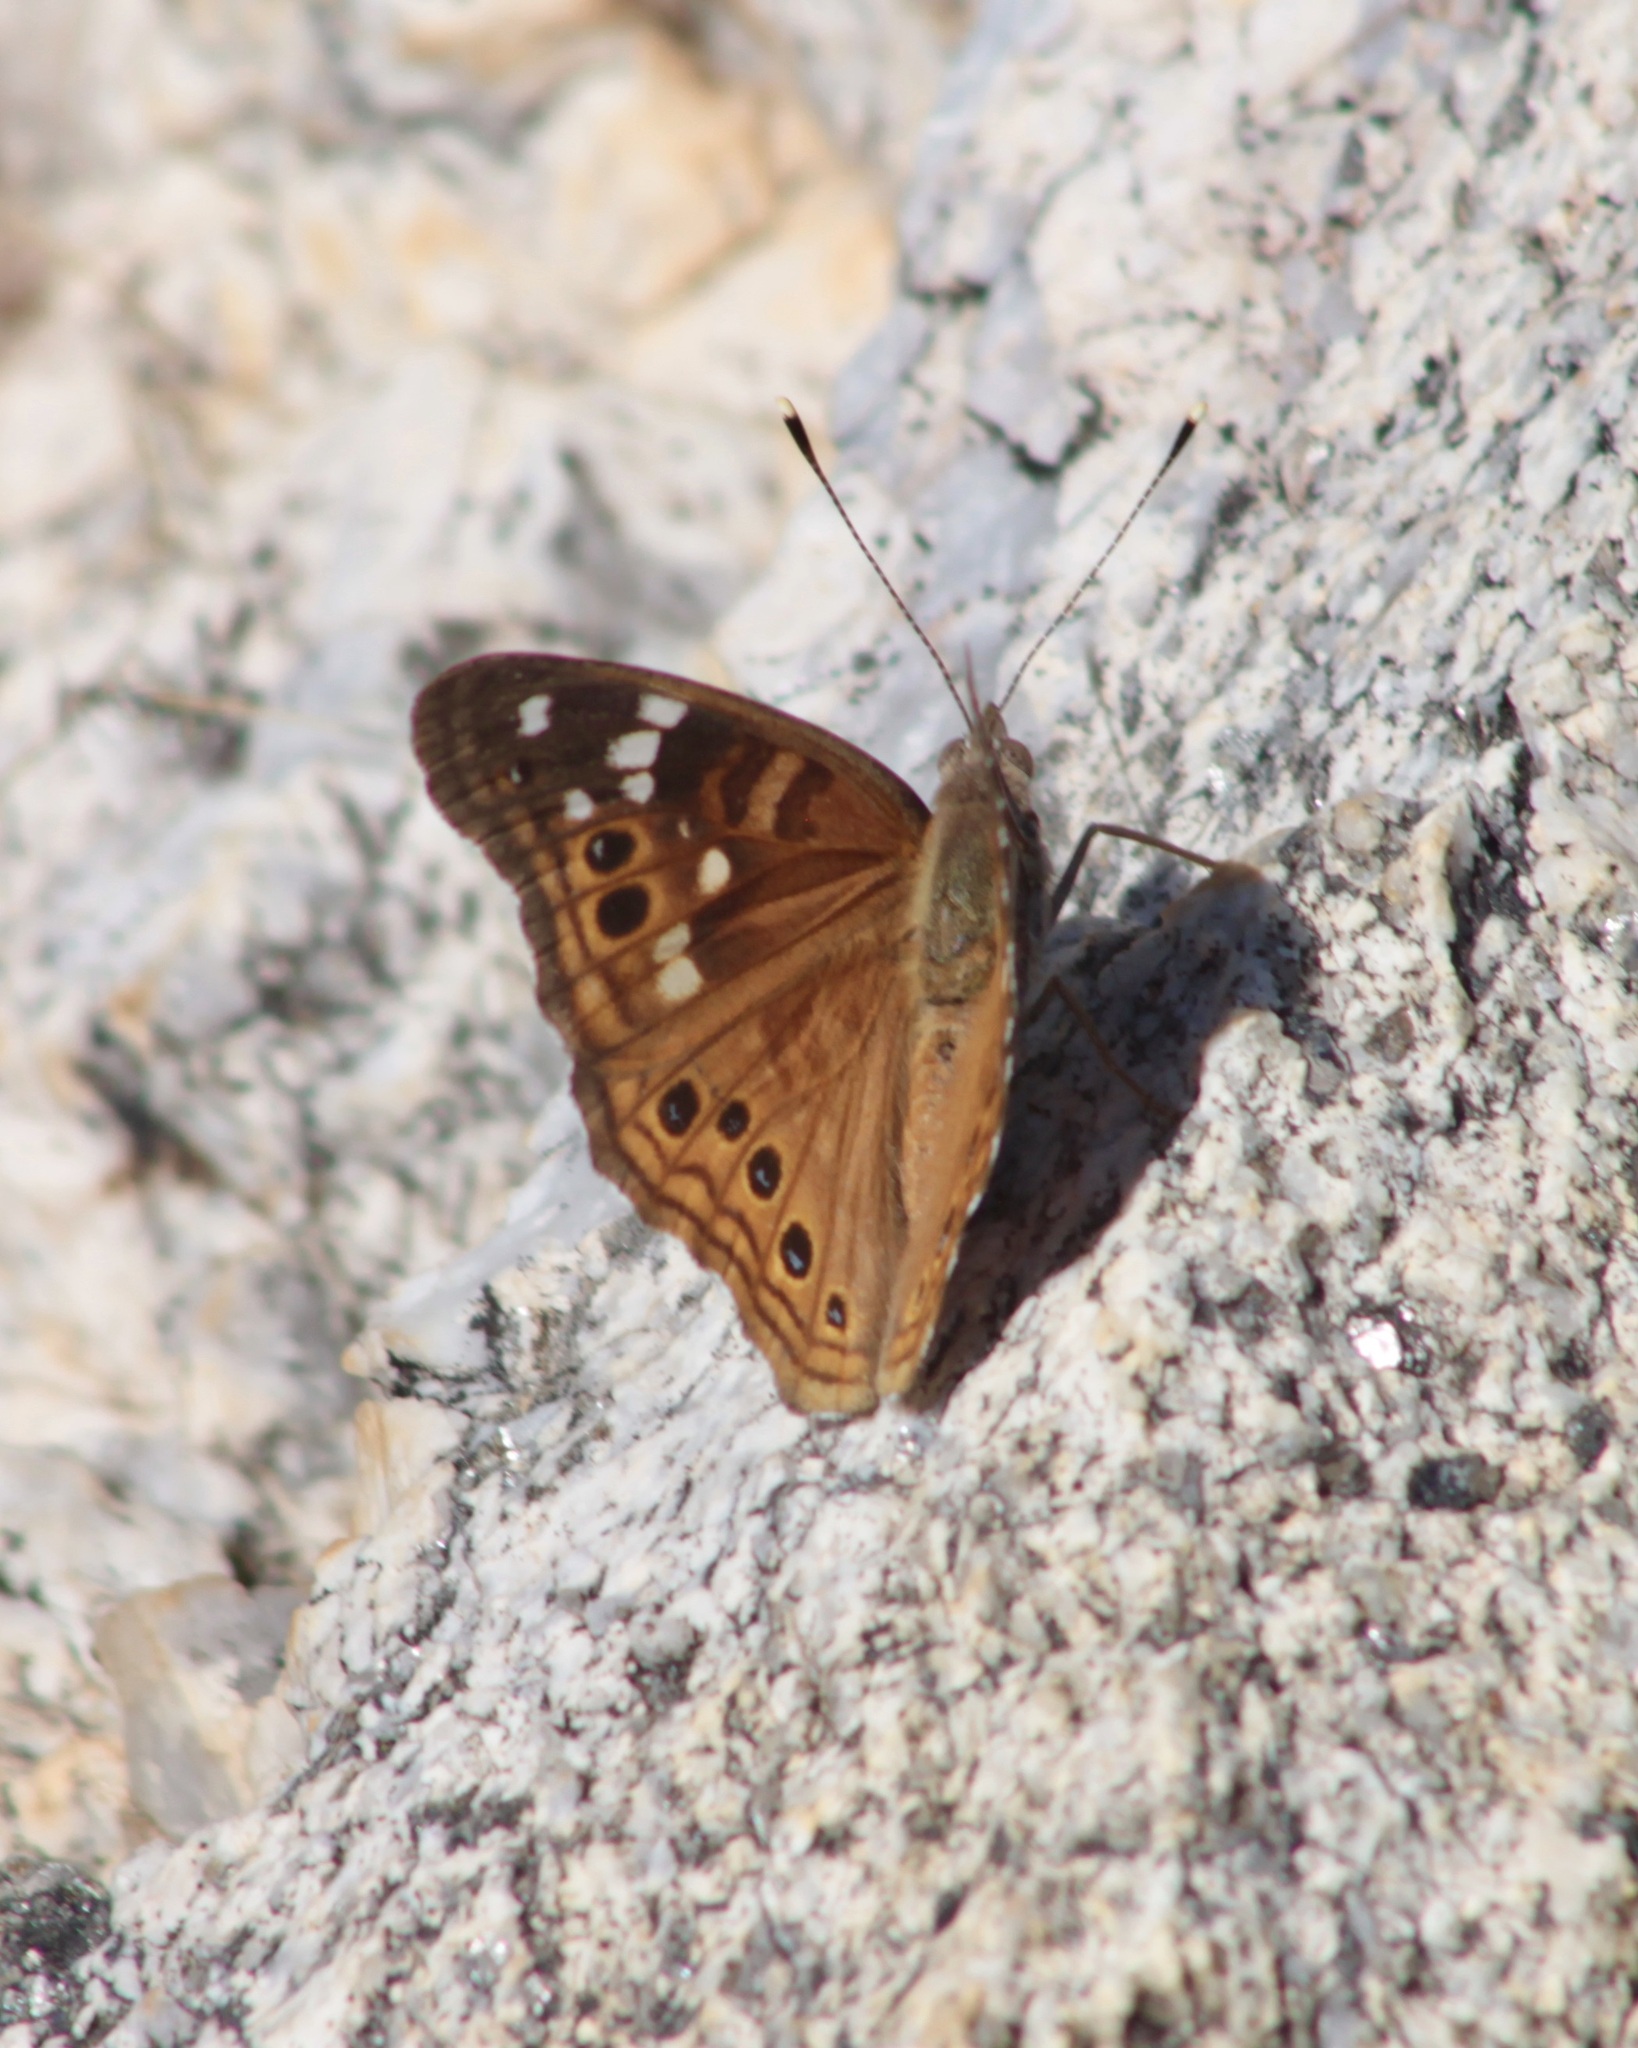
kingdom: Animalia
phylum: Arthropoda
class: Insecta
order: Lepidoptera
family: Nymphalidae
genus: Asterocampa
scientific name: Asterocampa leilia
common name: Empress leilia
